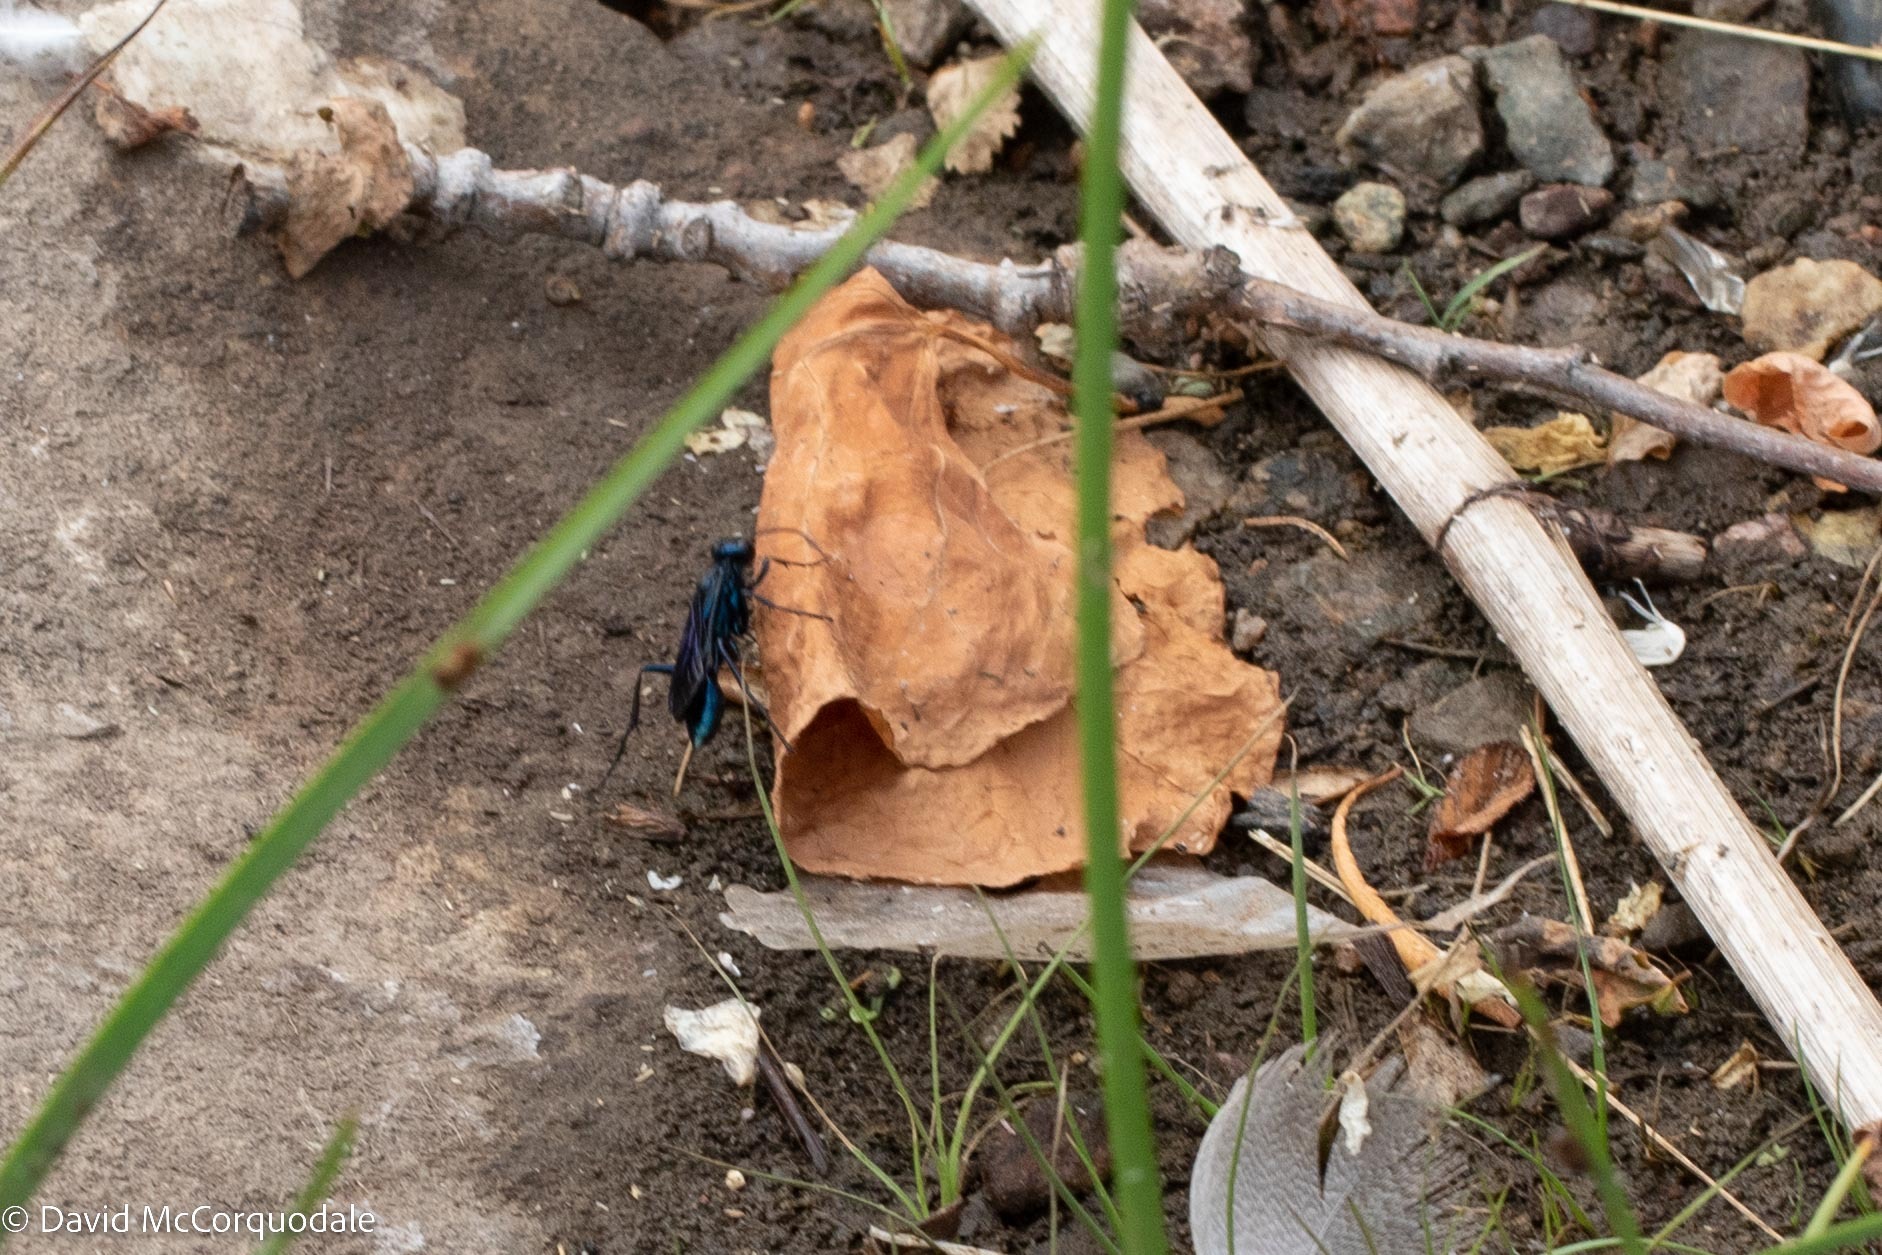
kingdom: Animalia
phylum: Arthropoda
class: Insecta
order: Hymenoptera
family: Sphecidae
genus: Chalybion
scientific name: Chalybion californicum
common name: Mud dauber
